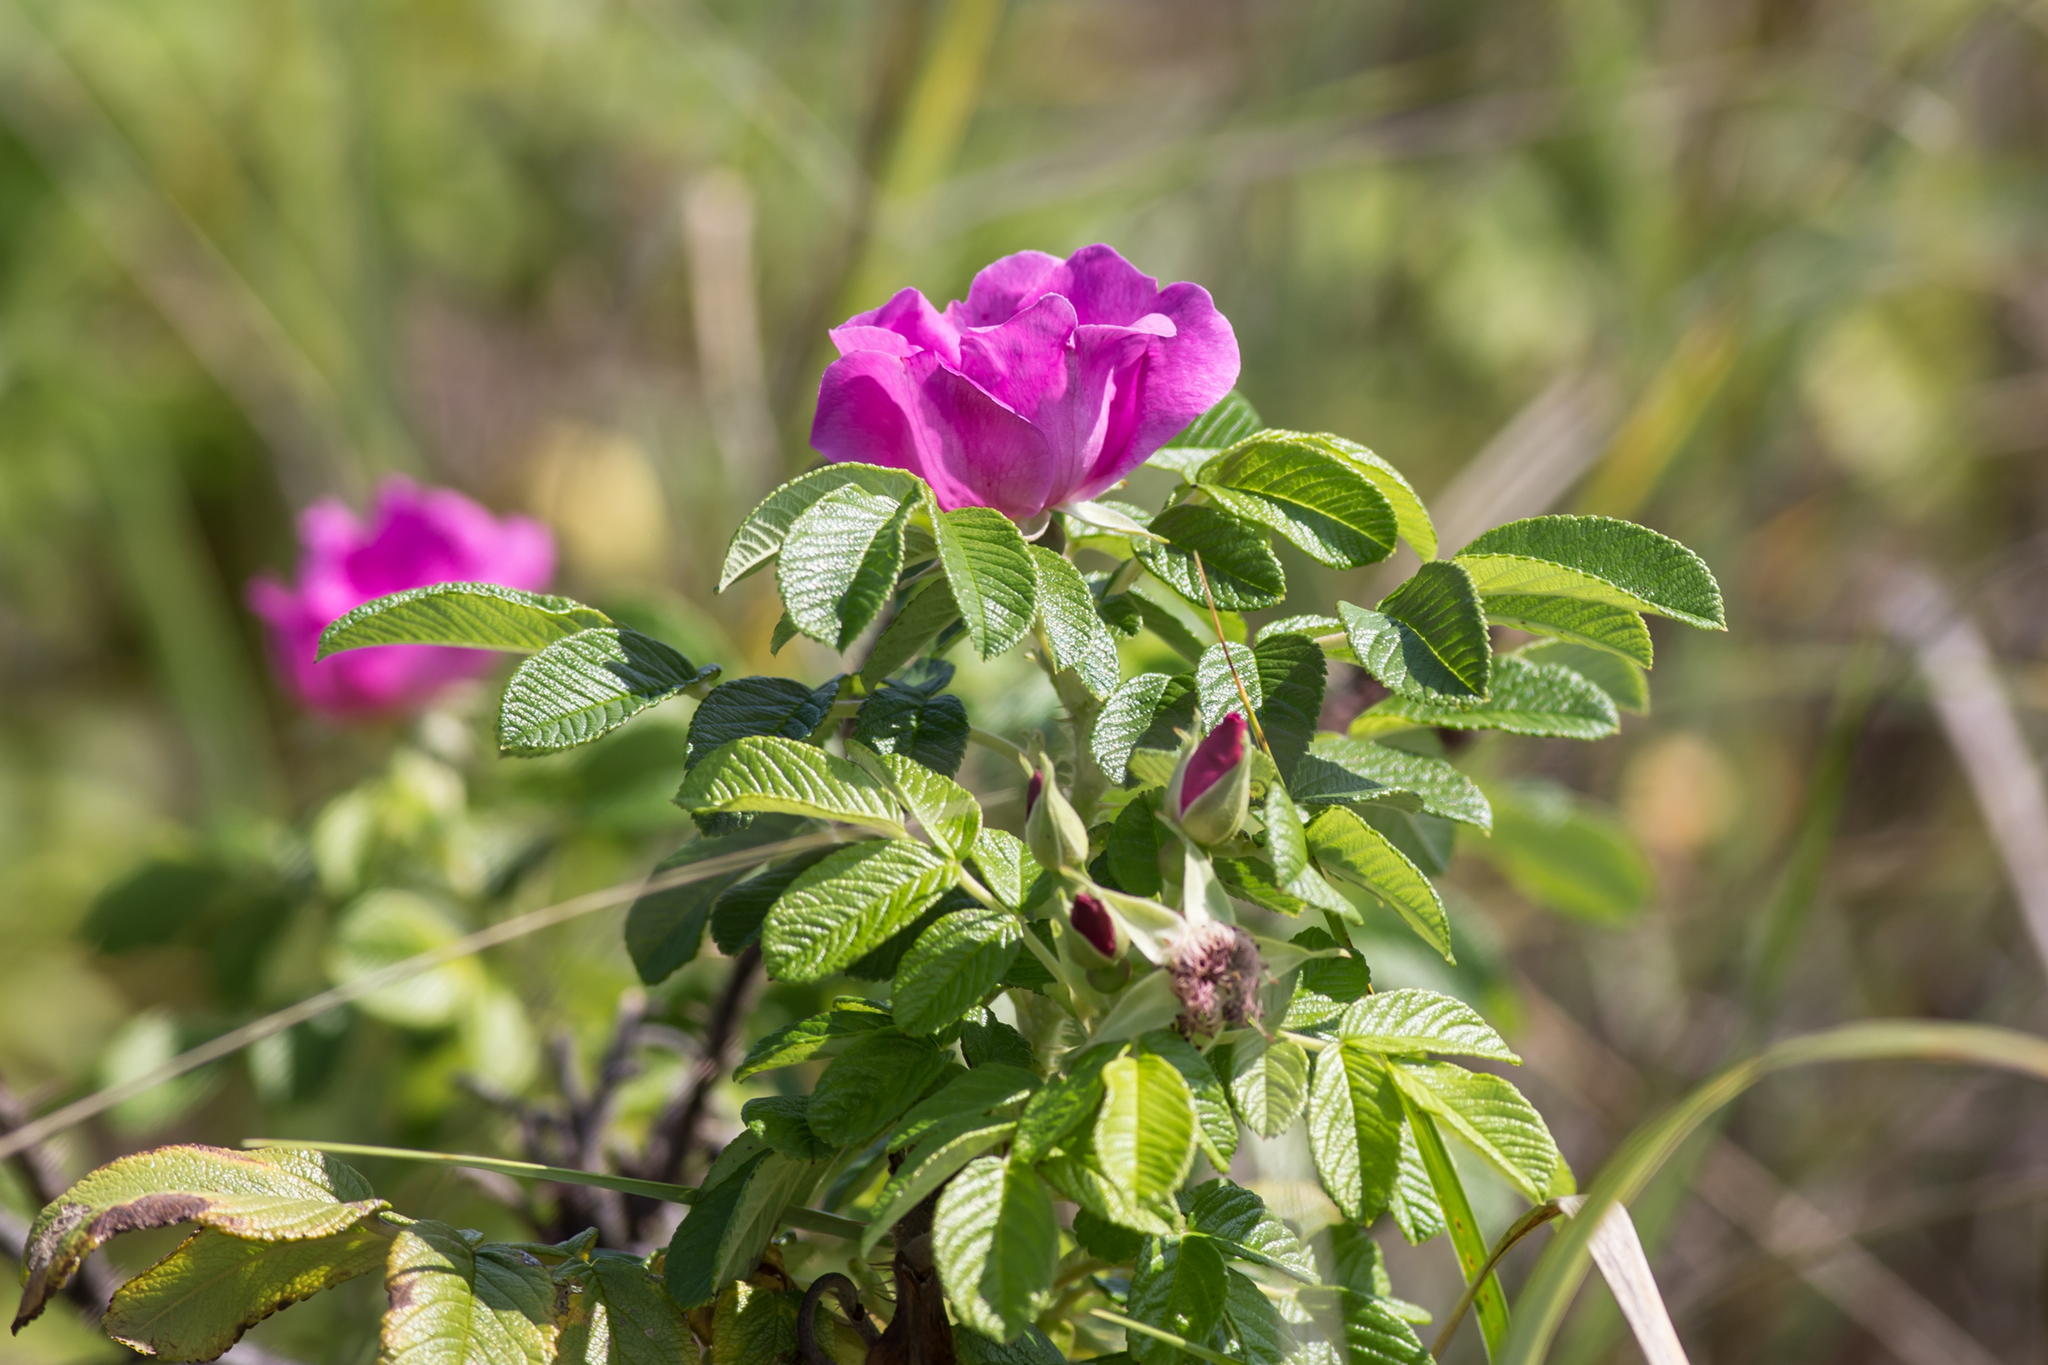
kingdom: Plantae
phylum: Tracheophyta
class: Magnoliopsida
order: Rosales
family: Rosaceae
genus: Rosa
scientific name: Rosa rugosa
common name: Japanese rose
